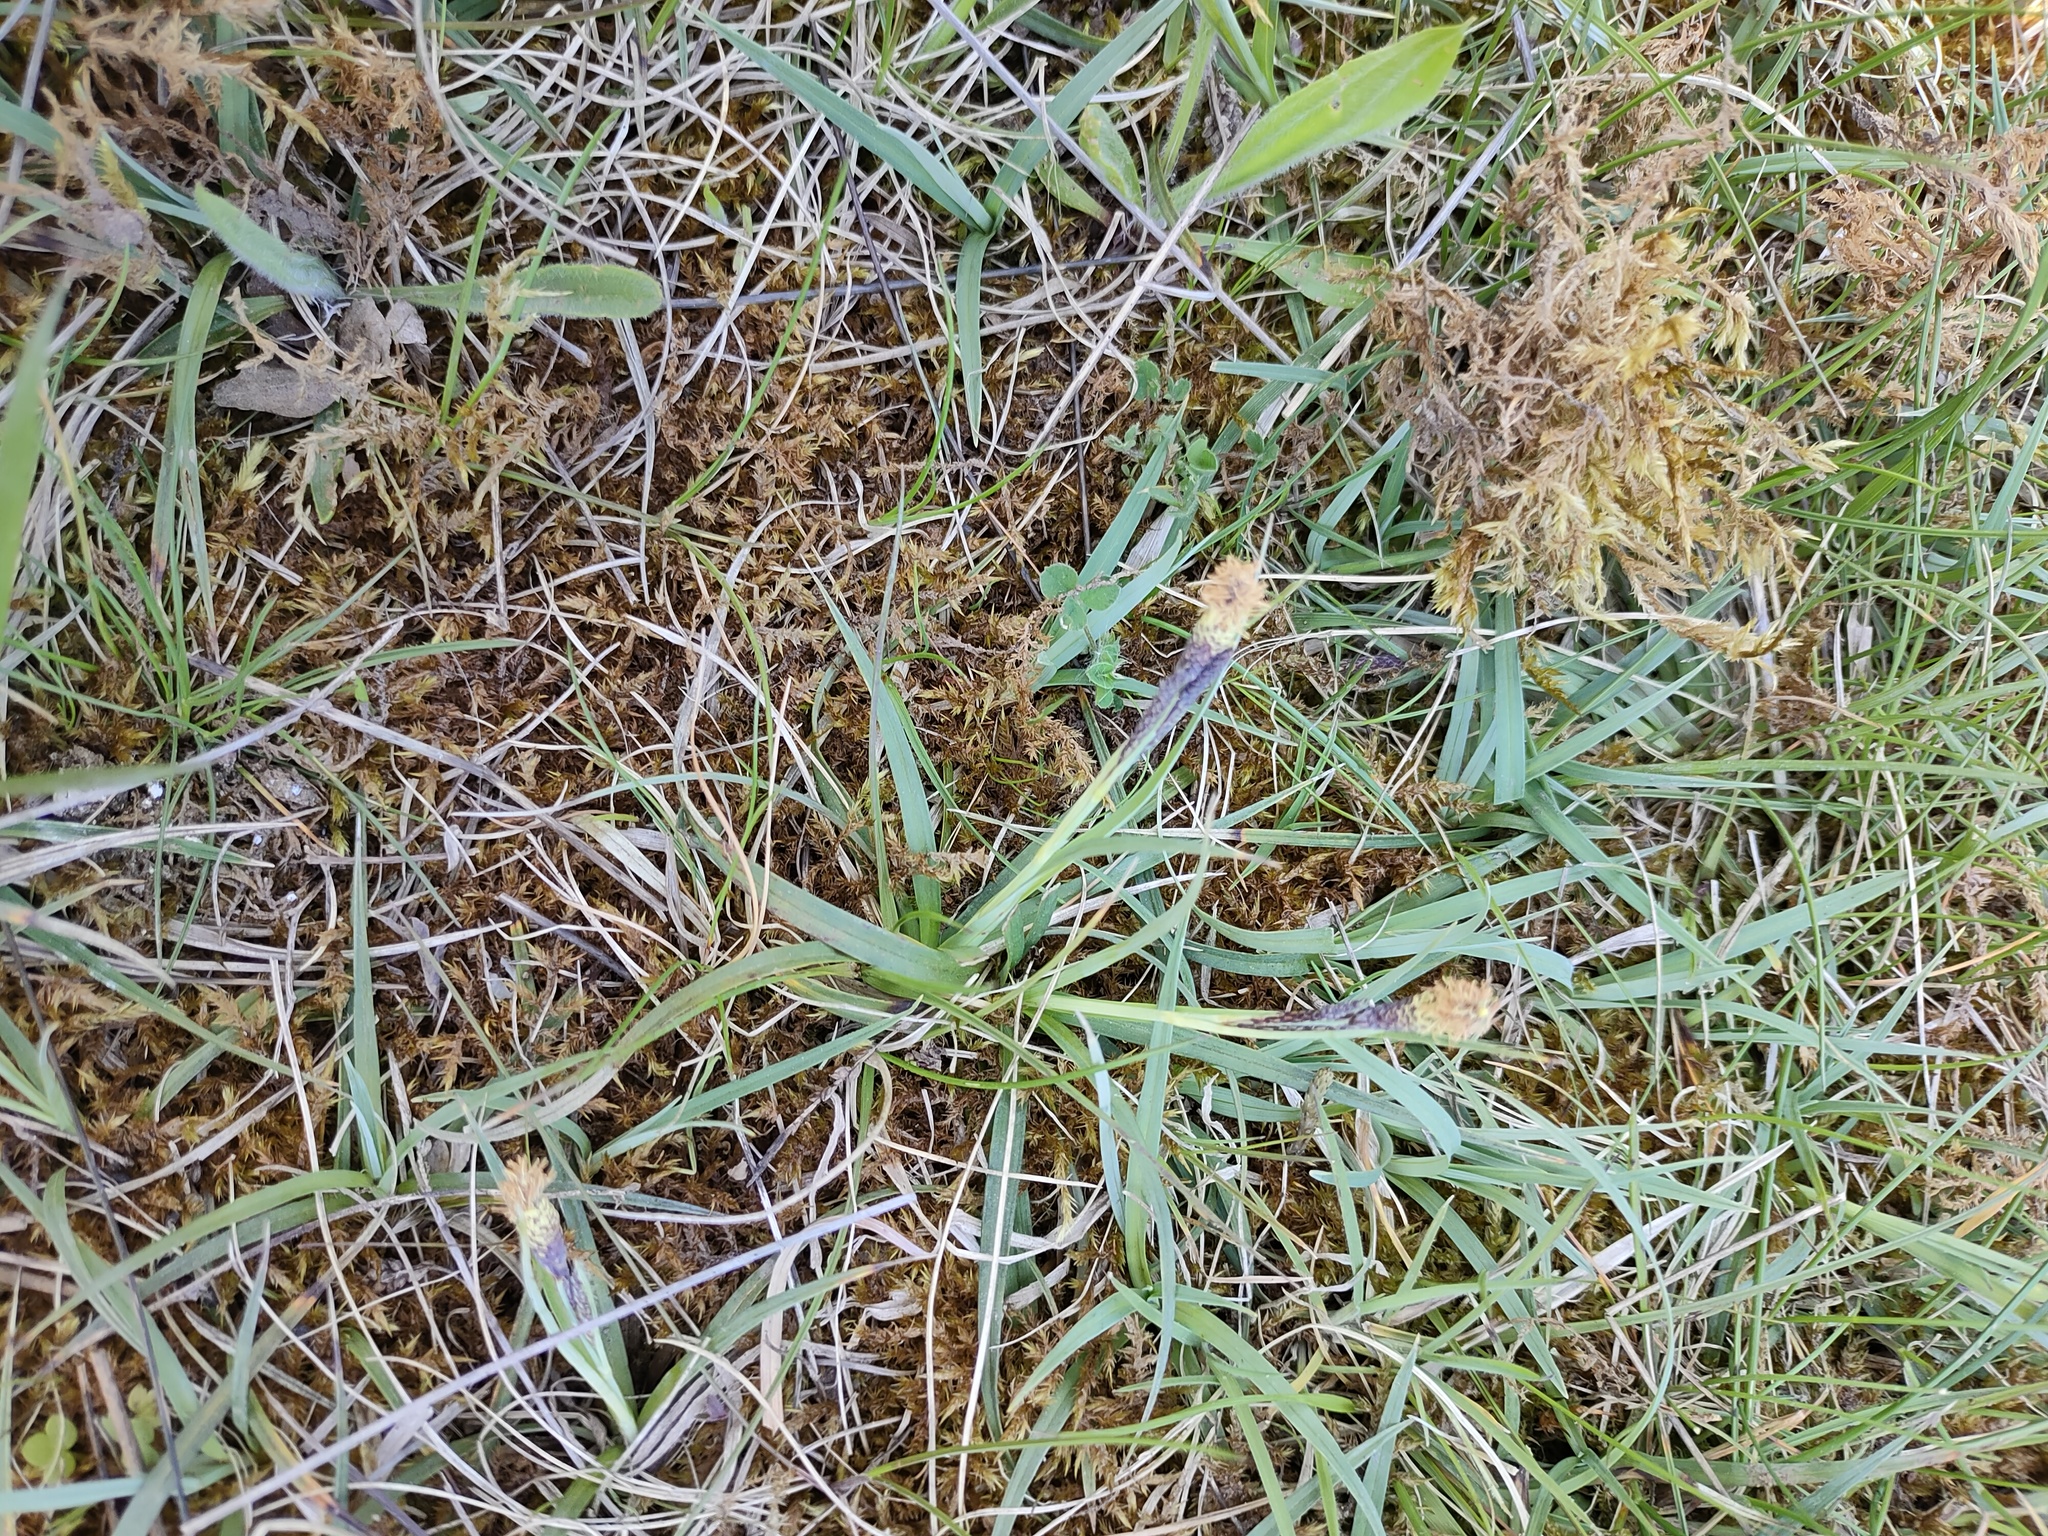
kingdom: Plantae
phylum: Tracheophyta
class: Liliopsida
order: Poales
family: Cyperaceae
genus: Carex
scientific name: Carex flacca
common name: Glaucous sedge
